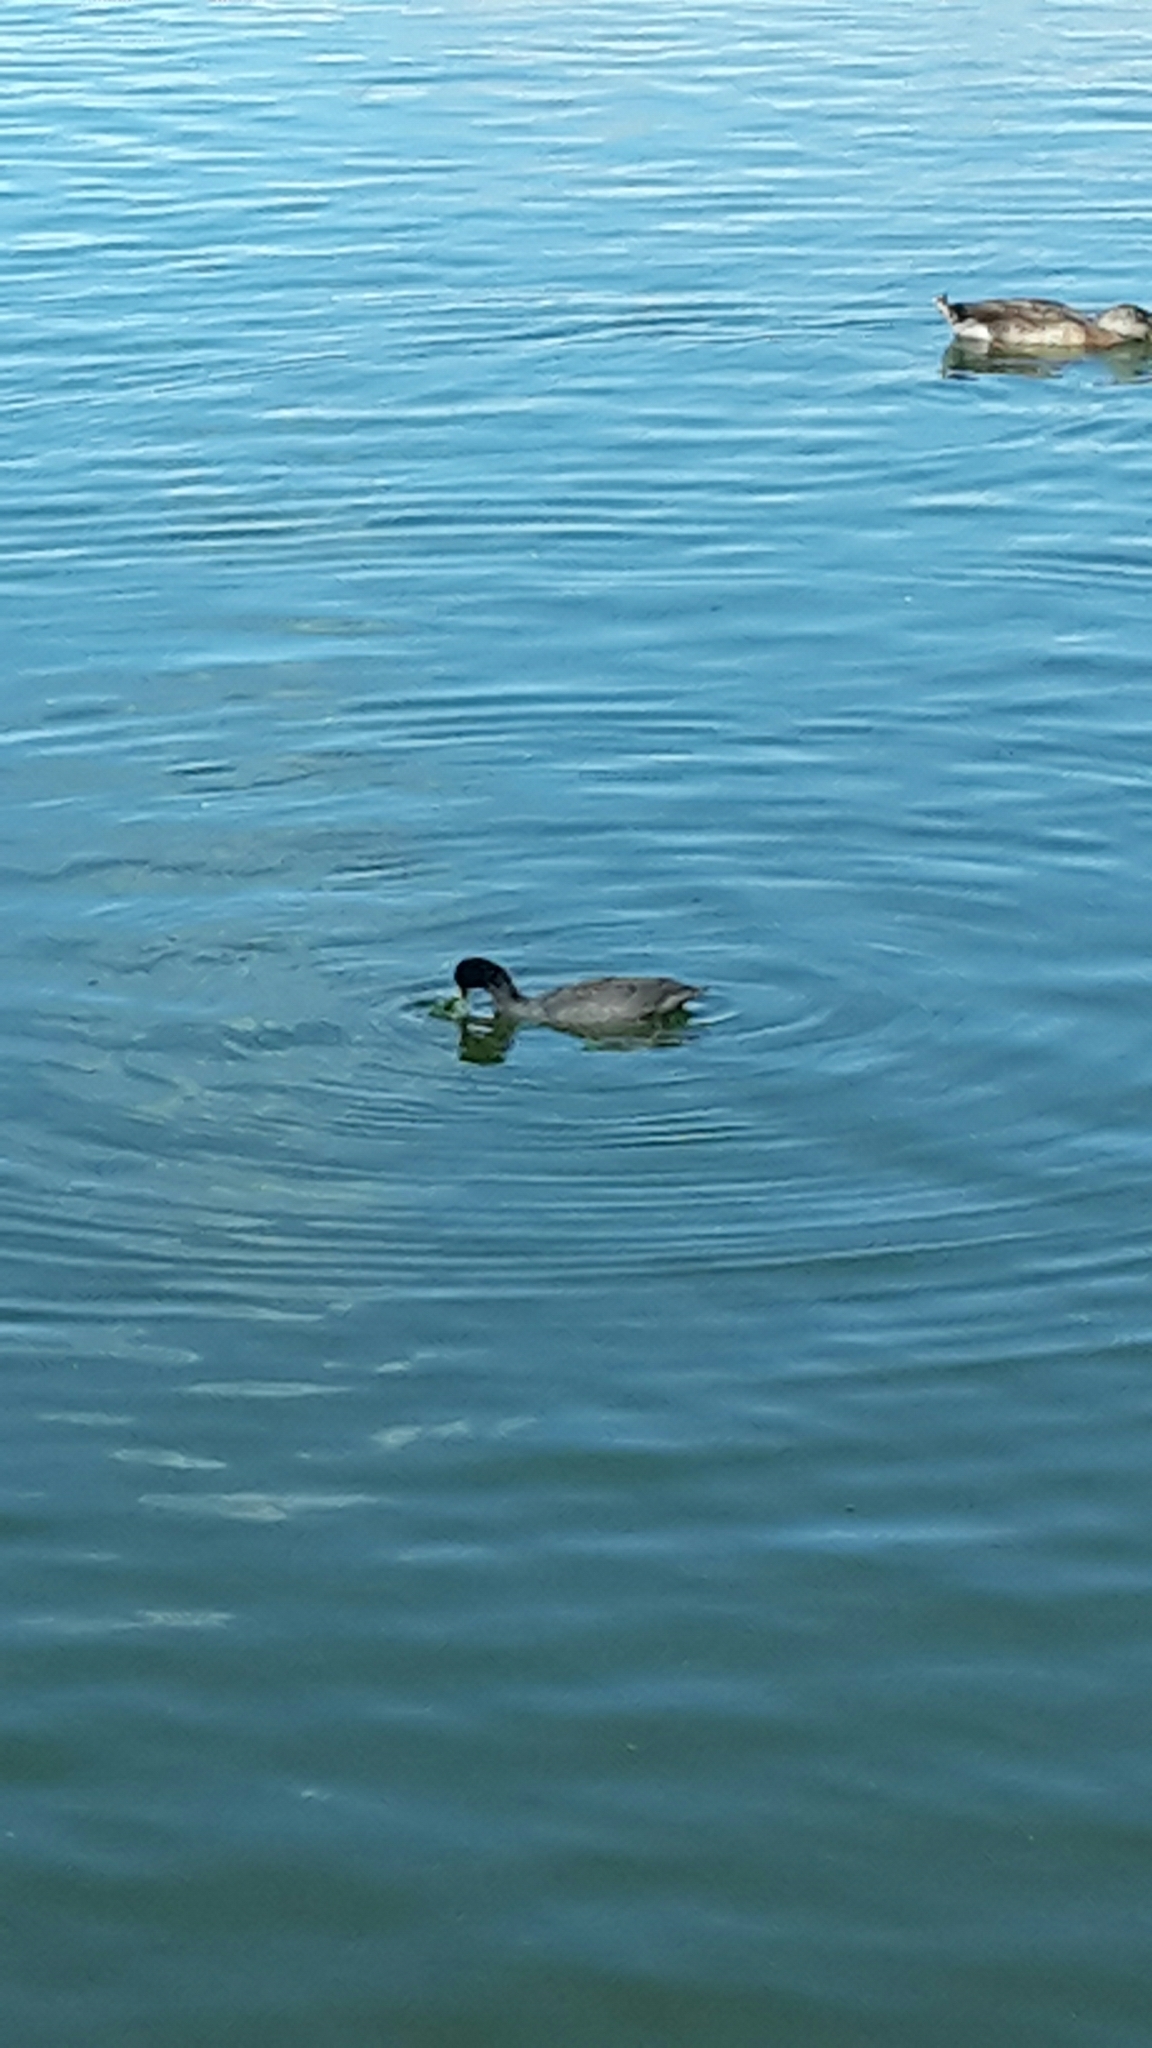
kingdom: Animalia
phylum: Chordata
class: Aves
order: Gruiformes
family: Rallidae
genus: Fulica
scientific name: Fulica atra
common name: Eurasian coot
